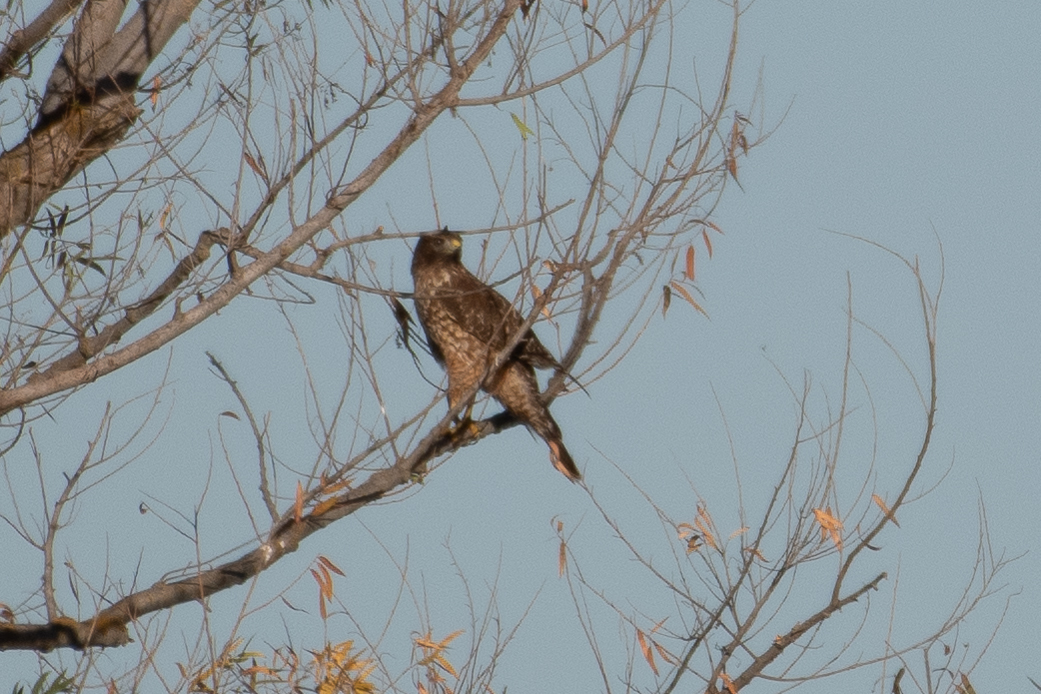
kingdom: Animalia
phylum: Chordata
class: Aves
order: Accipitriformes
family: Accipitridae
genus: Buteo
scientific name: Buteo lineatus
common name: Red-shouldered hawk
